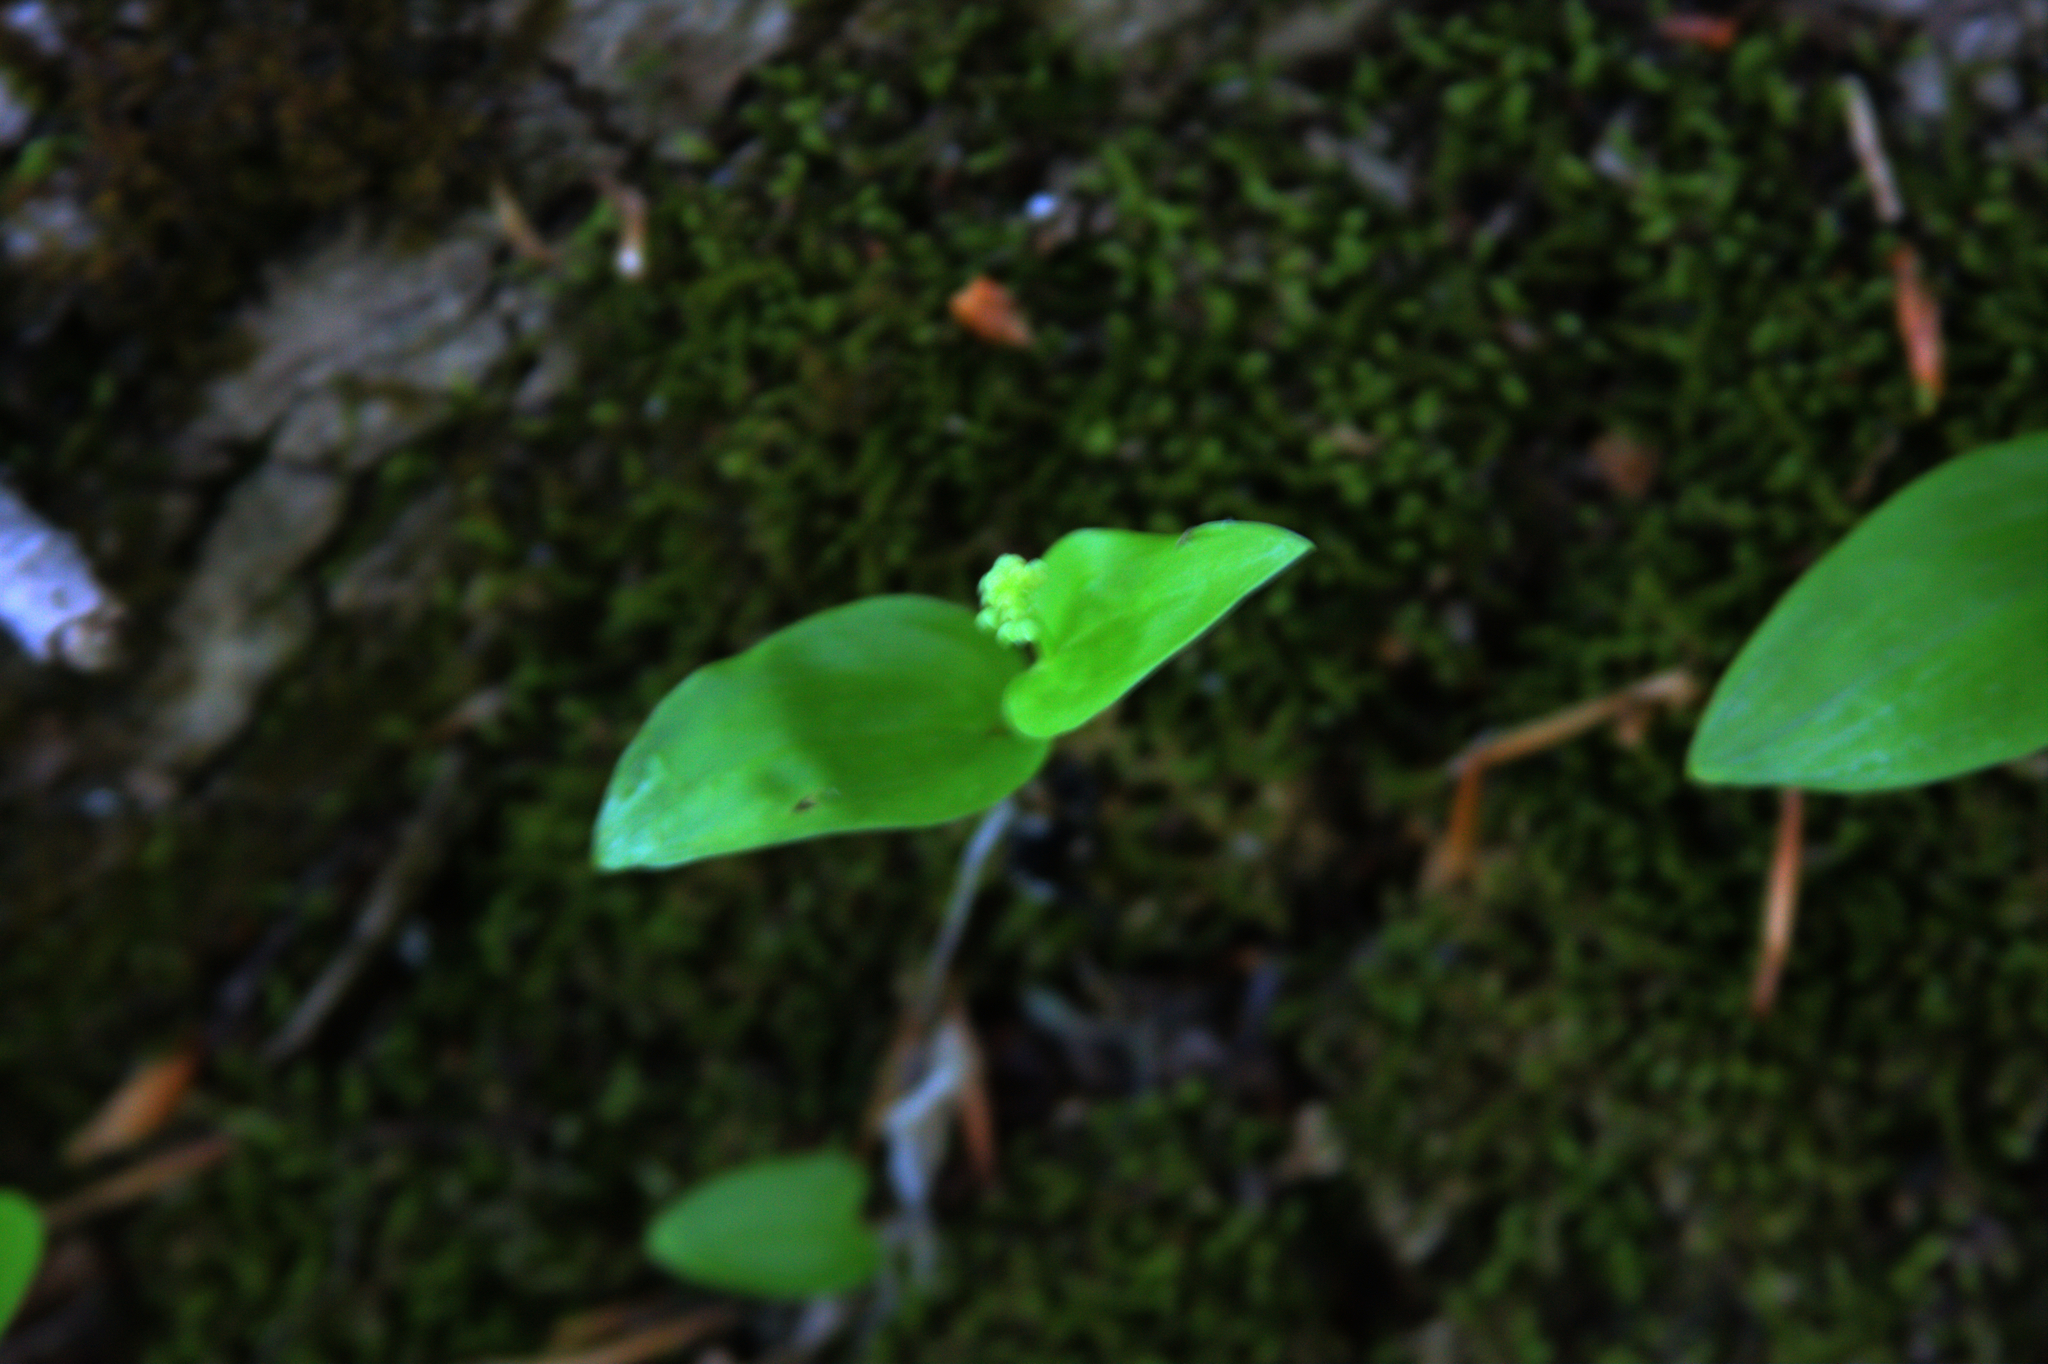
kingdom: Plantae
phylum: Tracheophyta
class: Liliopsida
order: Asparagales
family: Asparagaceae
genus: Maianthemum
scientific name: Maianthemum canadense
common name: False lily-of-the-valley
